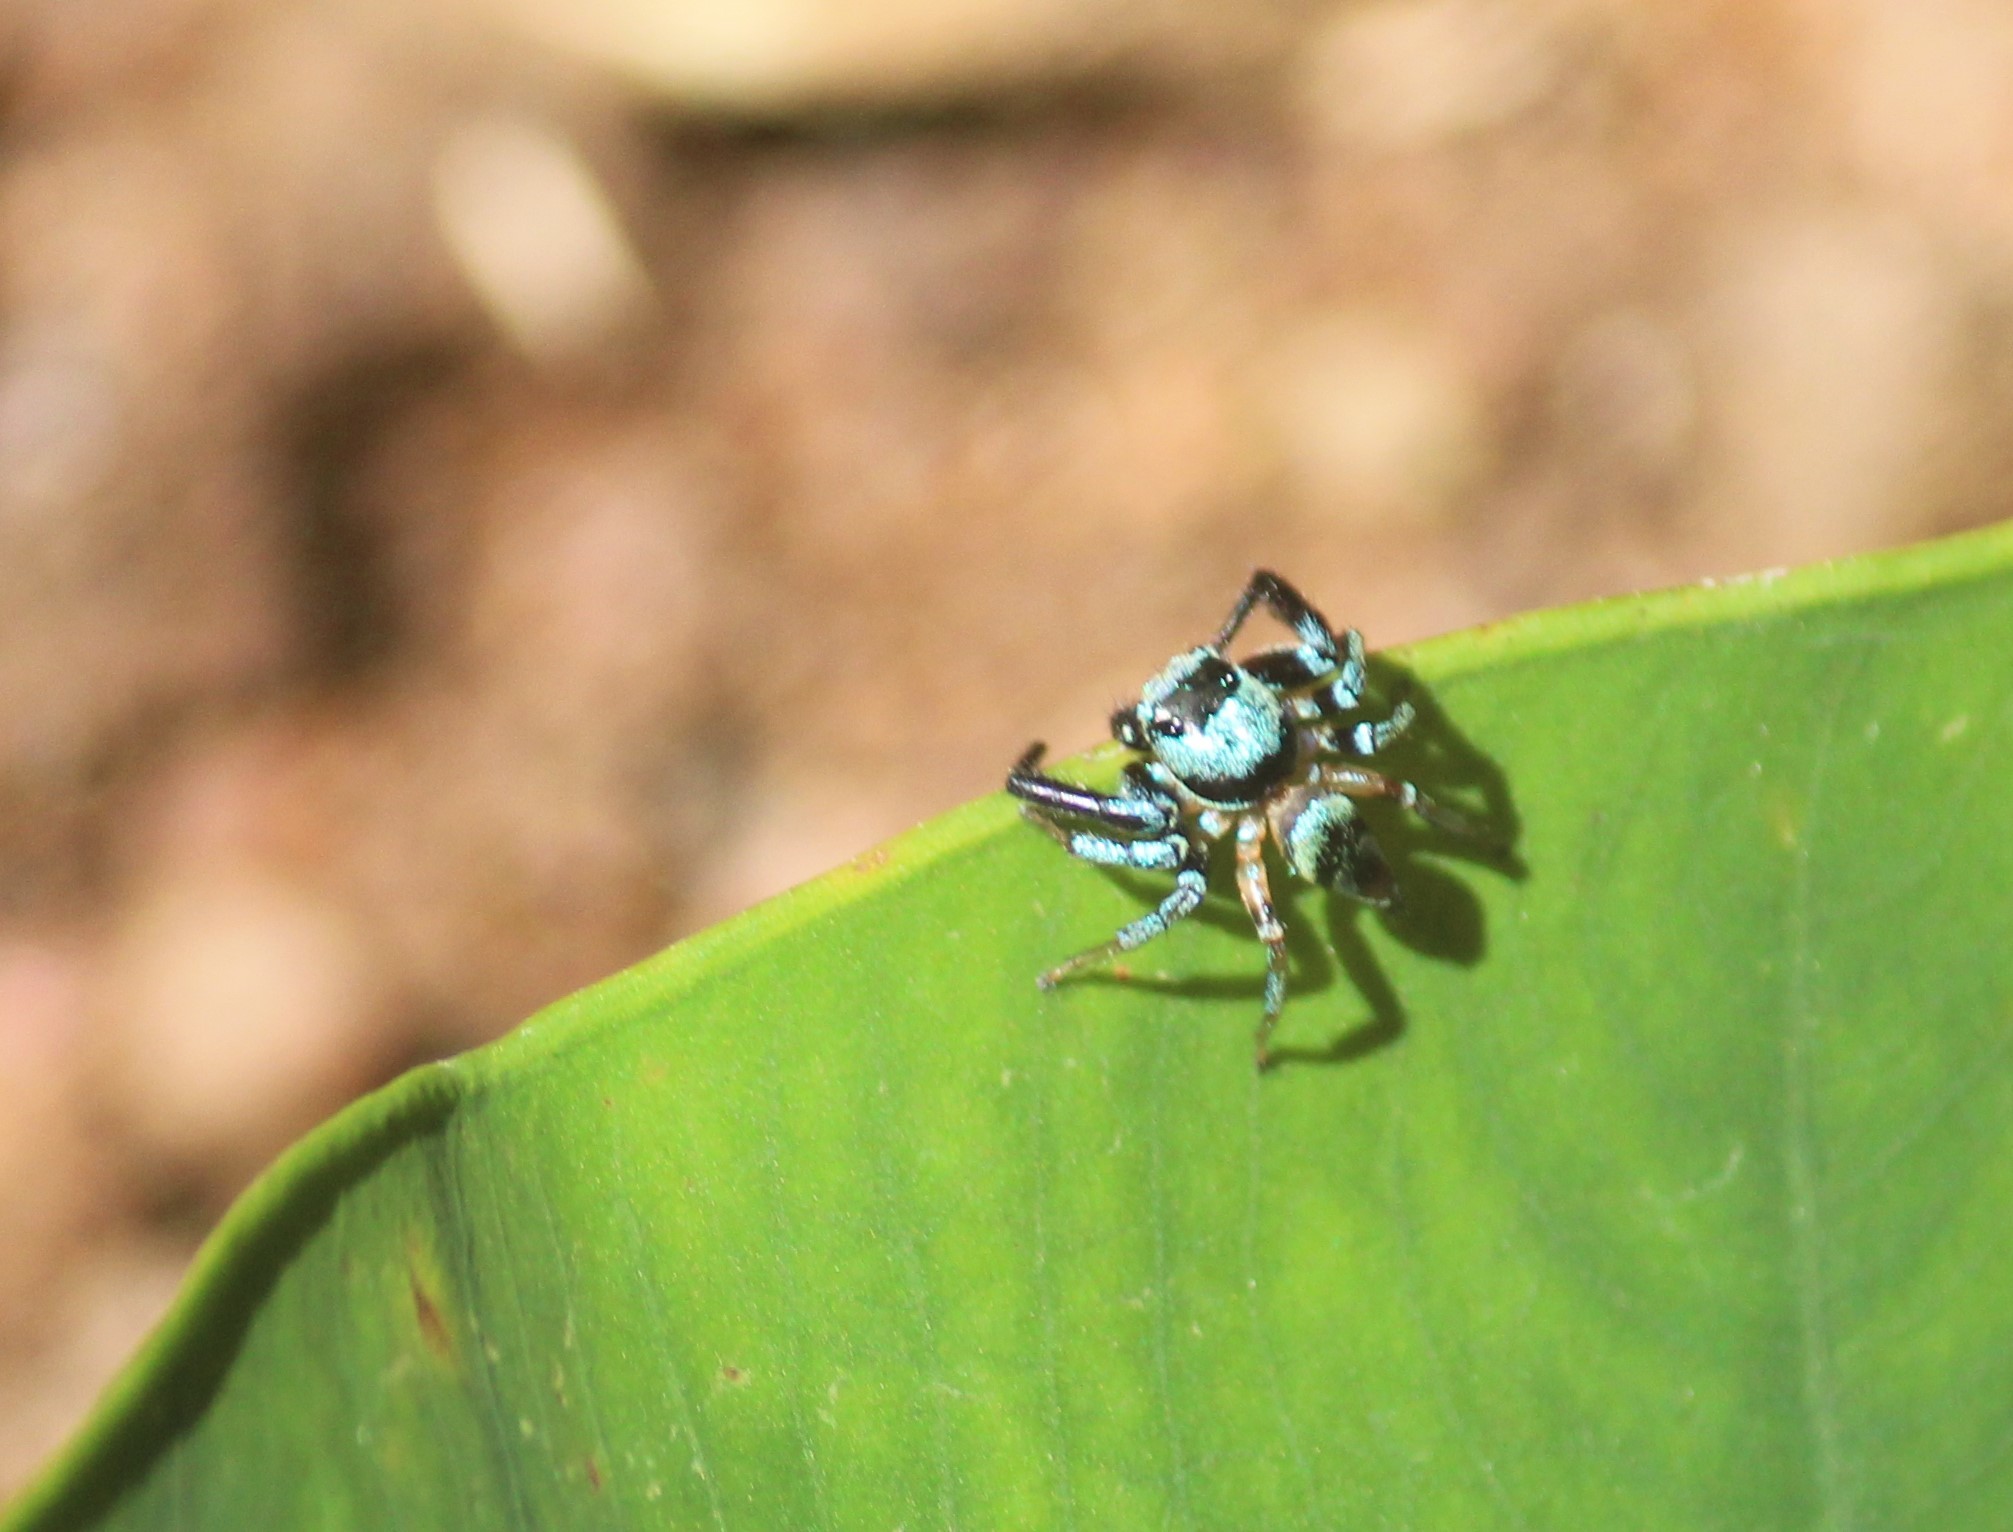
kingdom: Animalia
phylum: Arthropoda
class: Arachnida
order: Araneae
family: Salticidae
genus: Thiania
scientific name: Thiania bhamoensis
